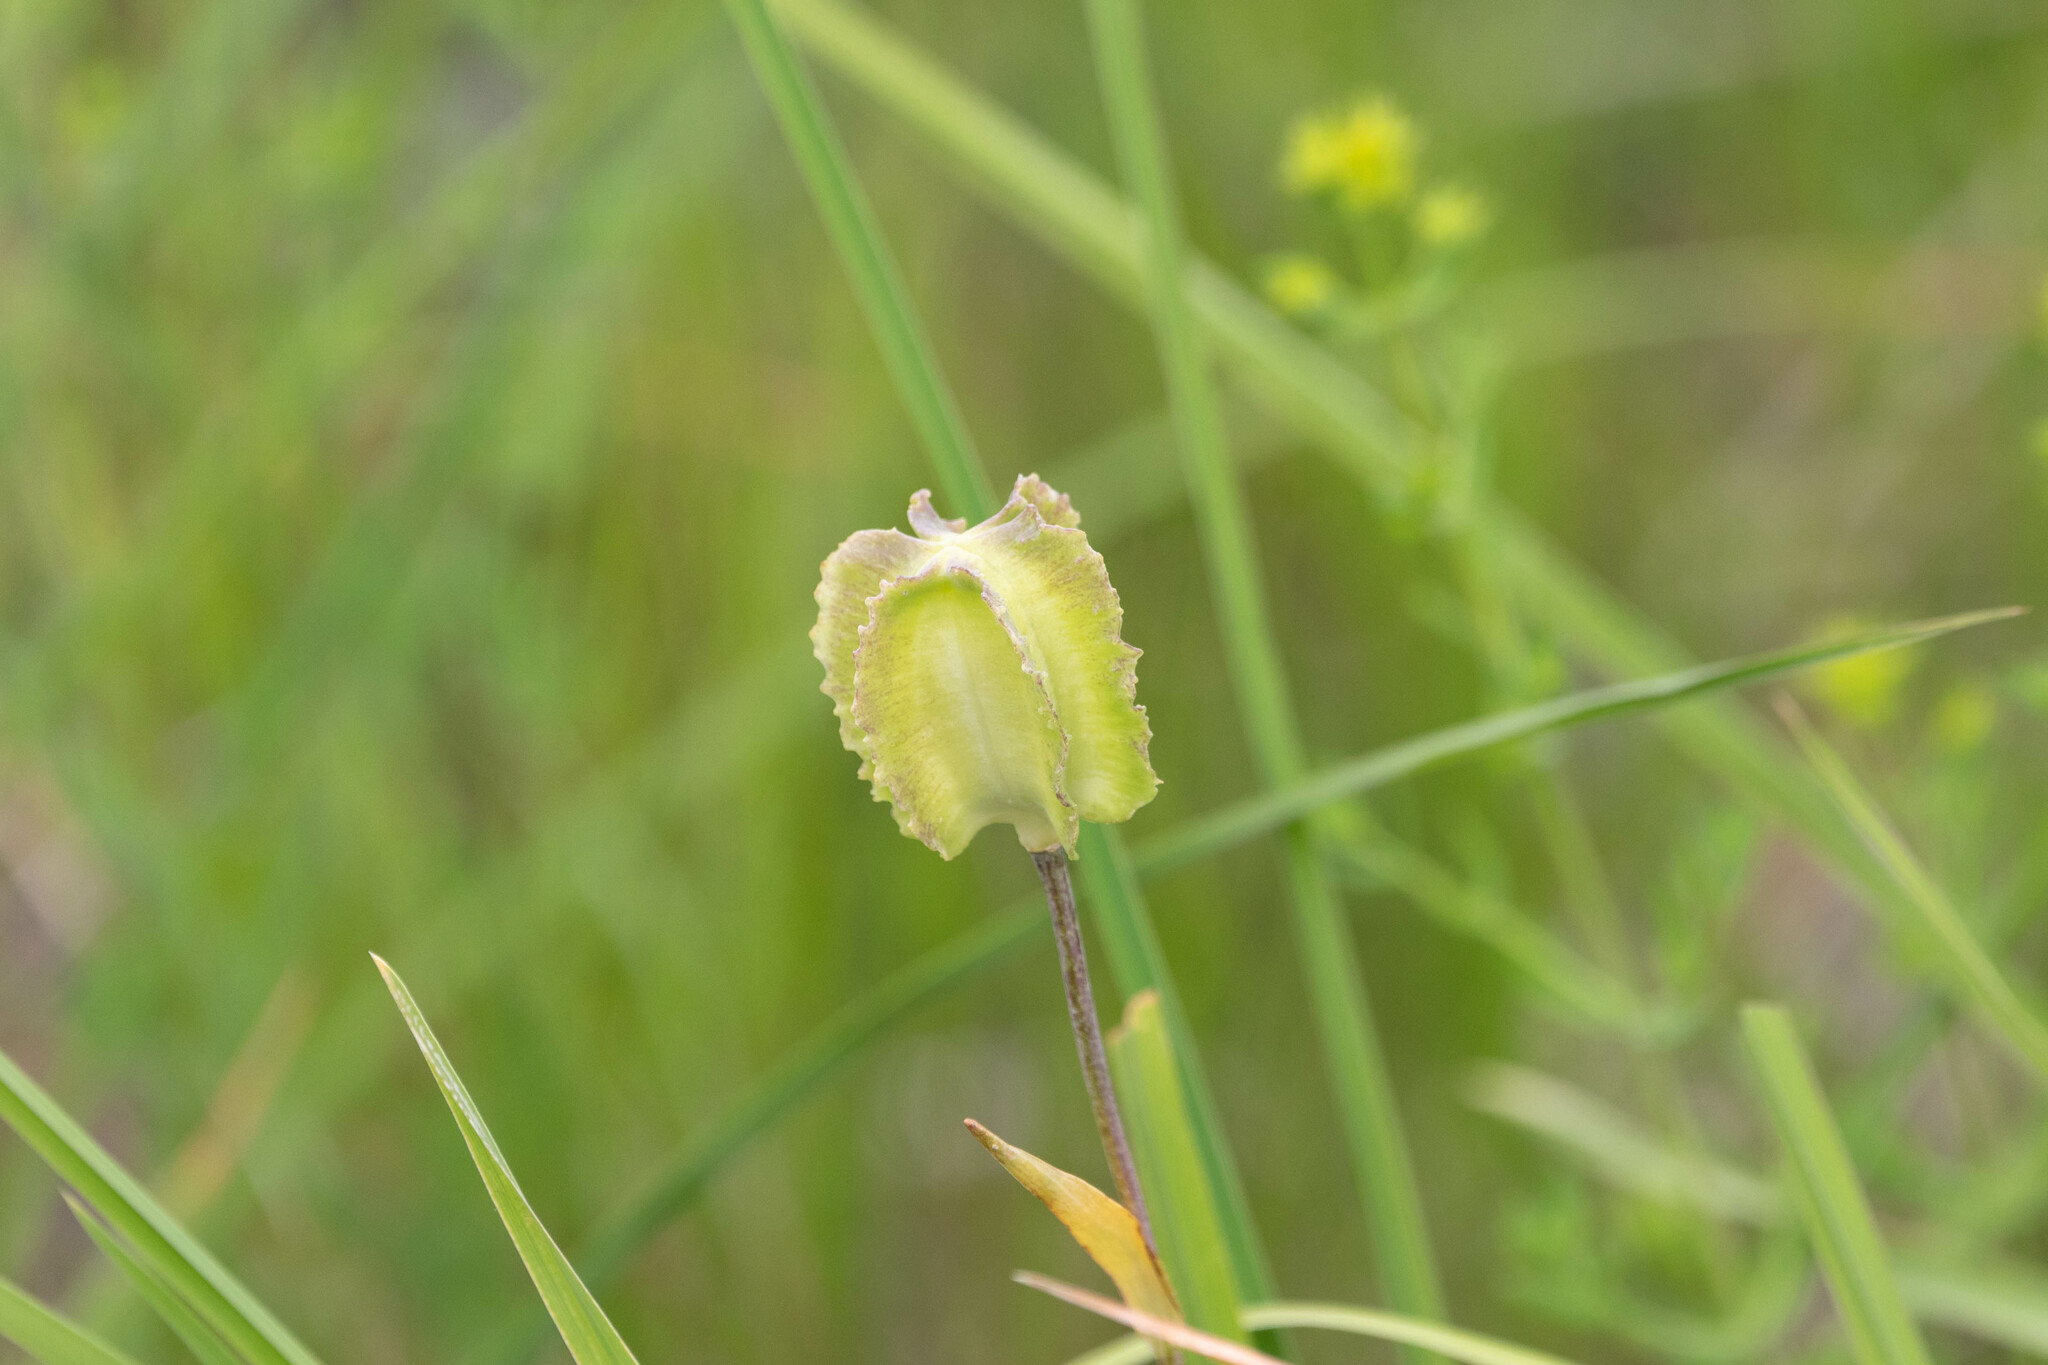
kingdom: Plantae
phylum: Tracheophyta
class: Liliopsida
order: Liliales
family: Liliaceae
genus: Fritillaria
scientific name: Fritillaria affinis
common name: Ojai fritillary
